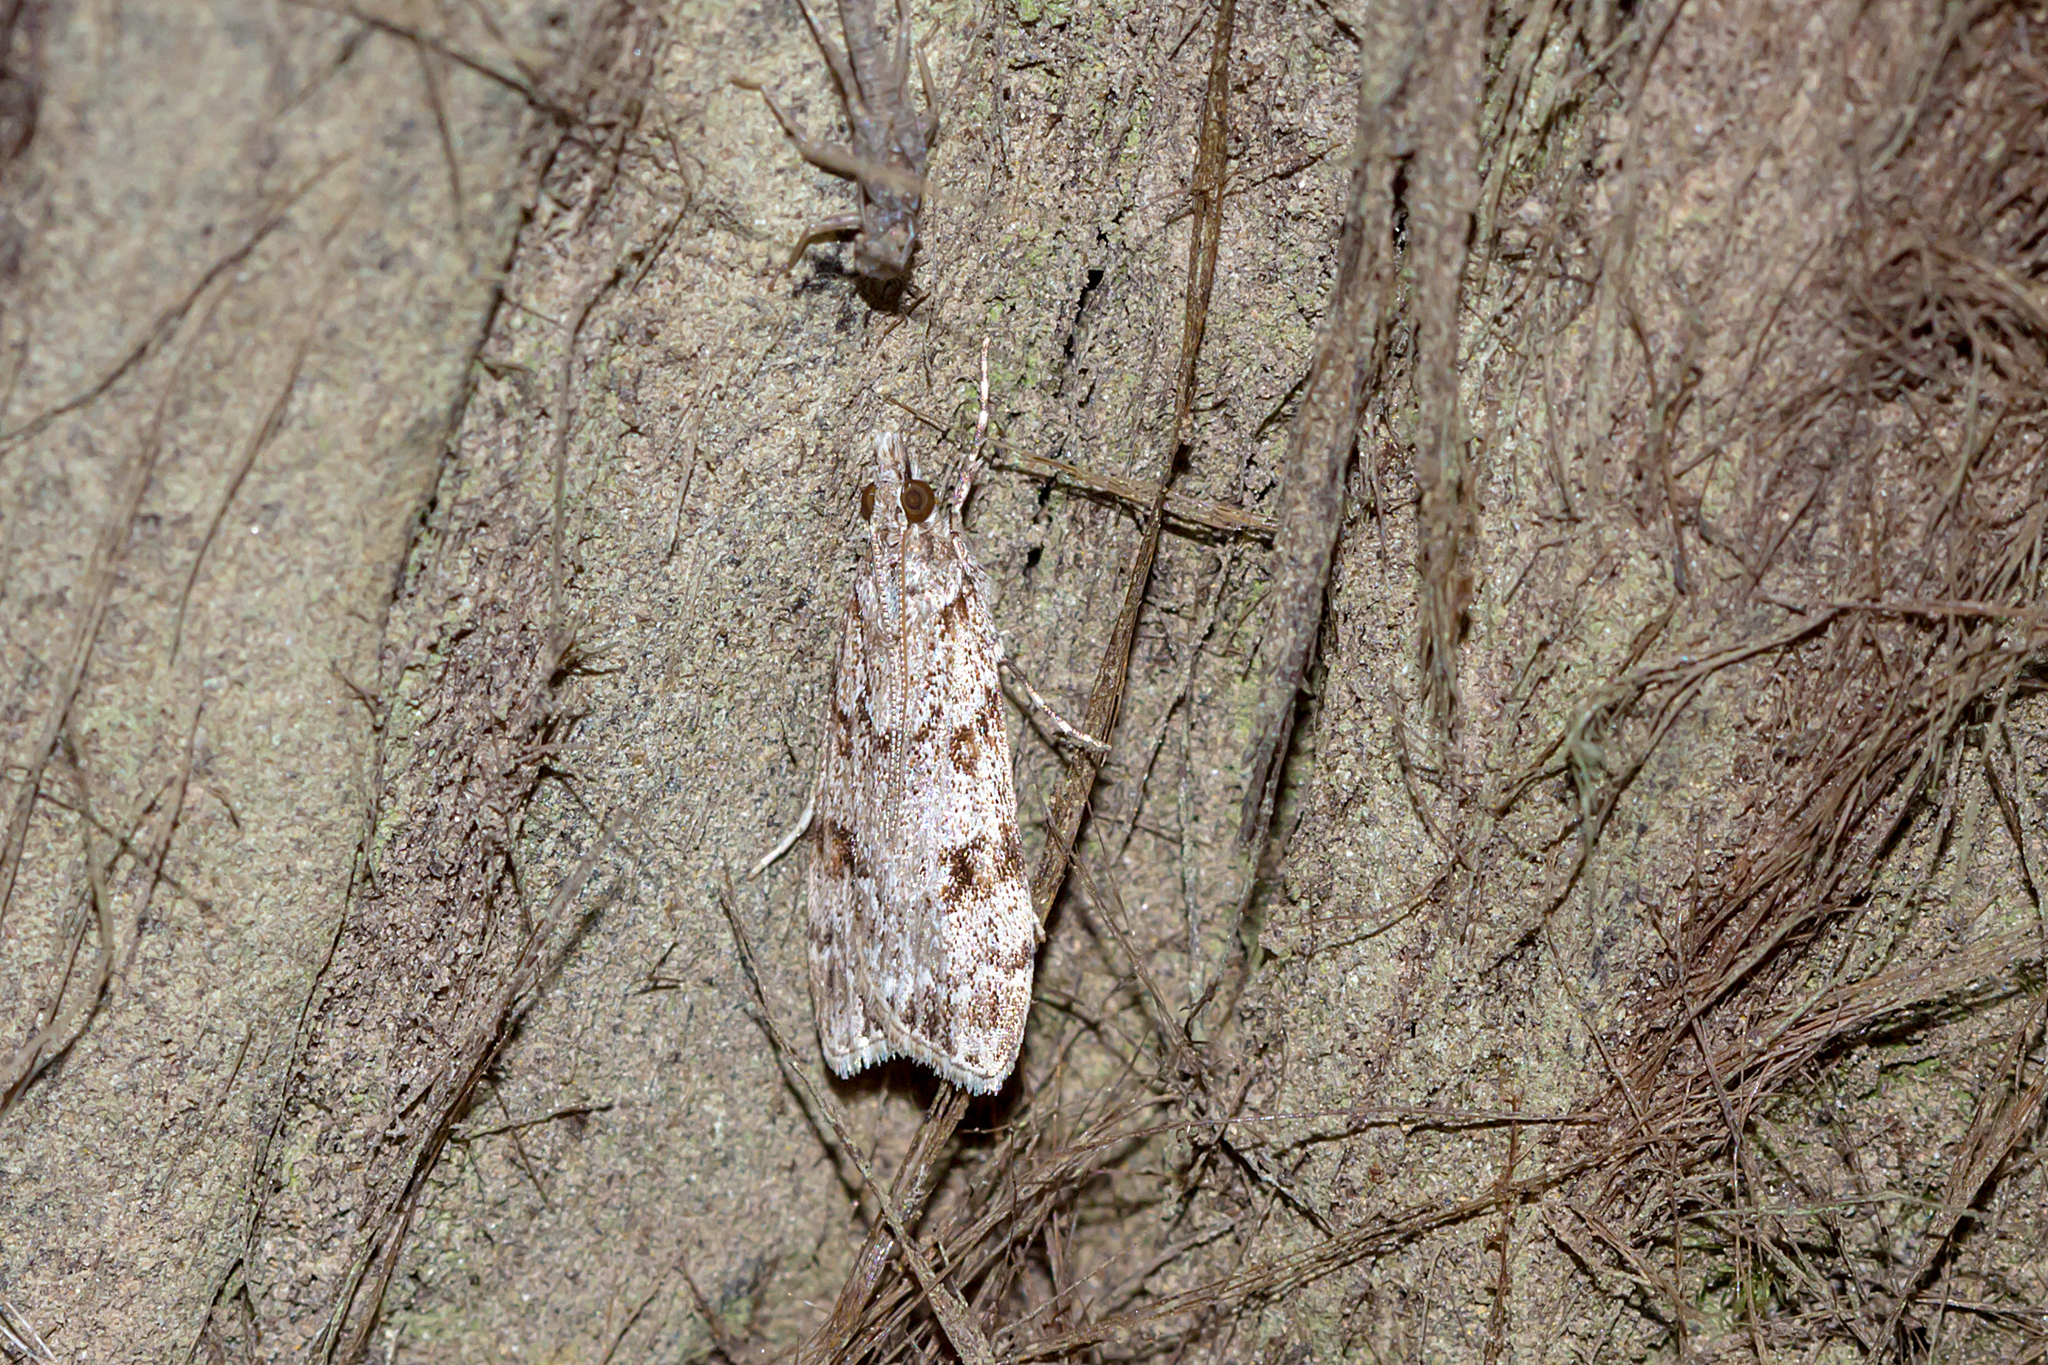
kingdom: Animalia
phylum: Arthropoda
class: Insecta
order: Lepidoptera
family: Crambidae
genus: Scoparia
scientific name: Scoparia chiasta
